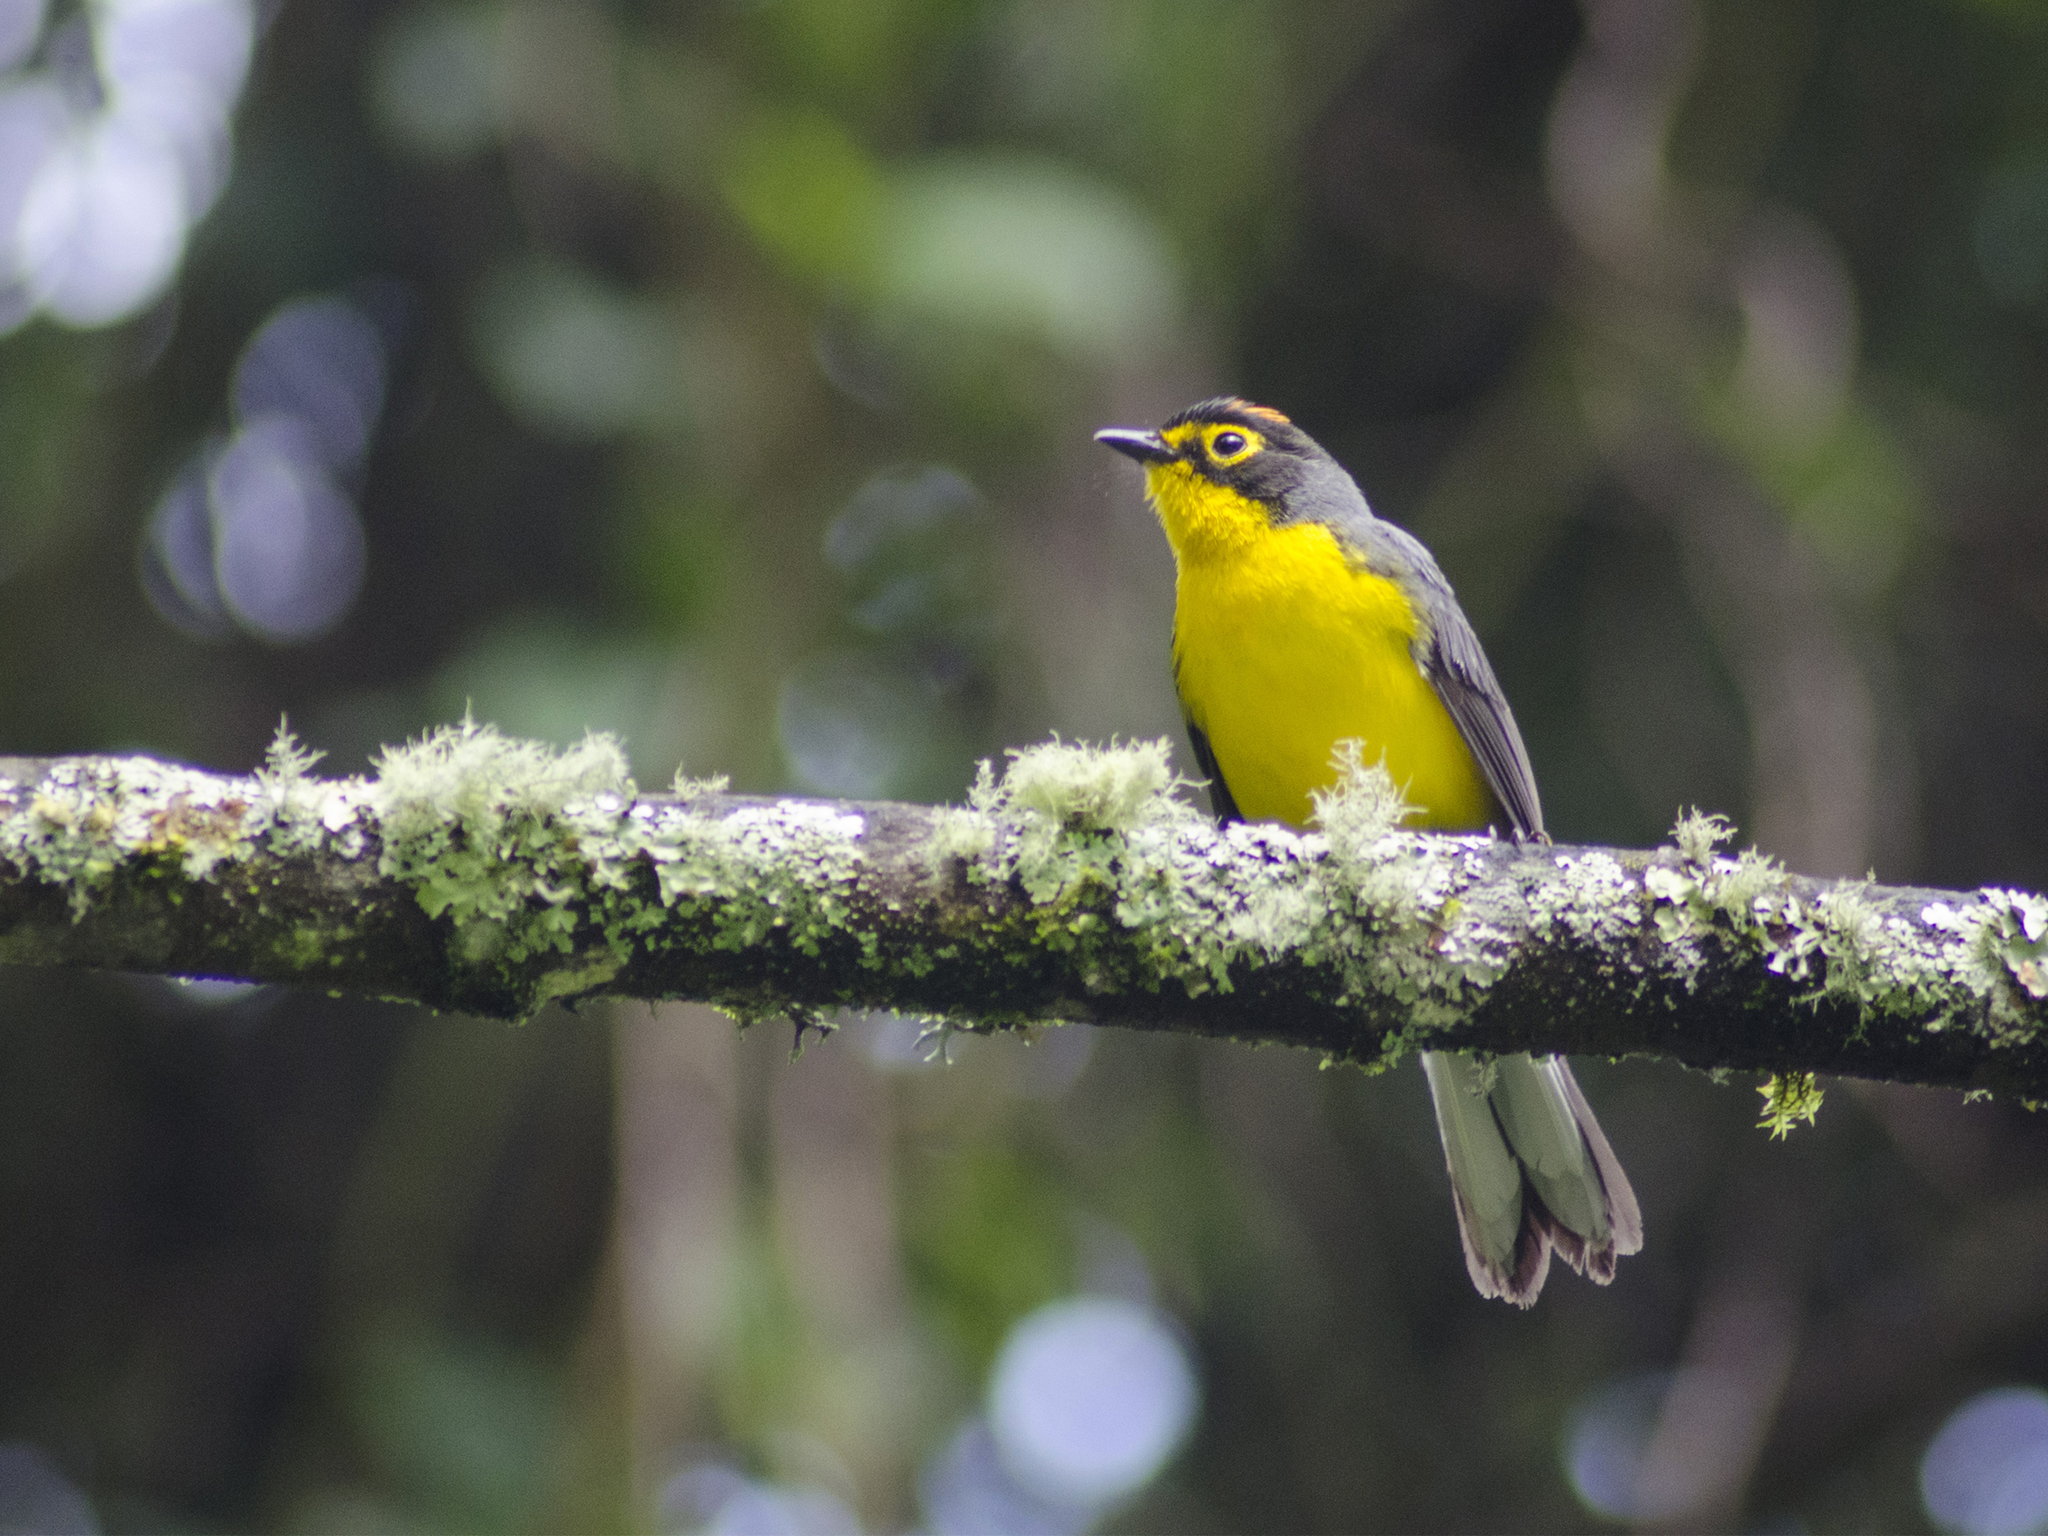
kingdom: Animalia
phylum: Chordata
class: Aves
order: Passeriformes
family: Parulidae
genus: Myioborus
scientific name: Myioborus melanocephalus
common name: Spectacled whitestart
